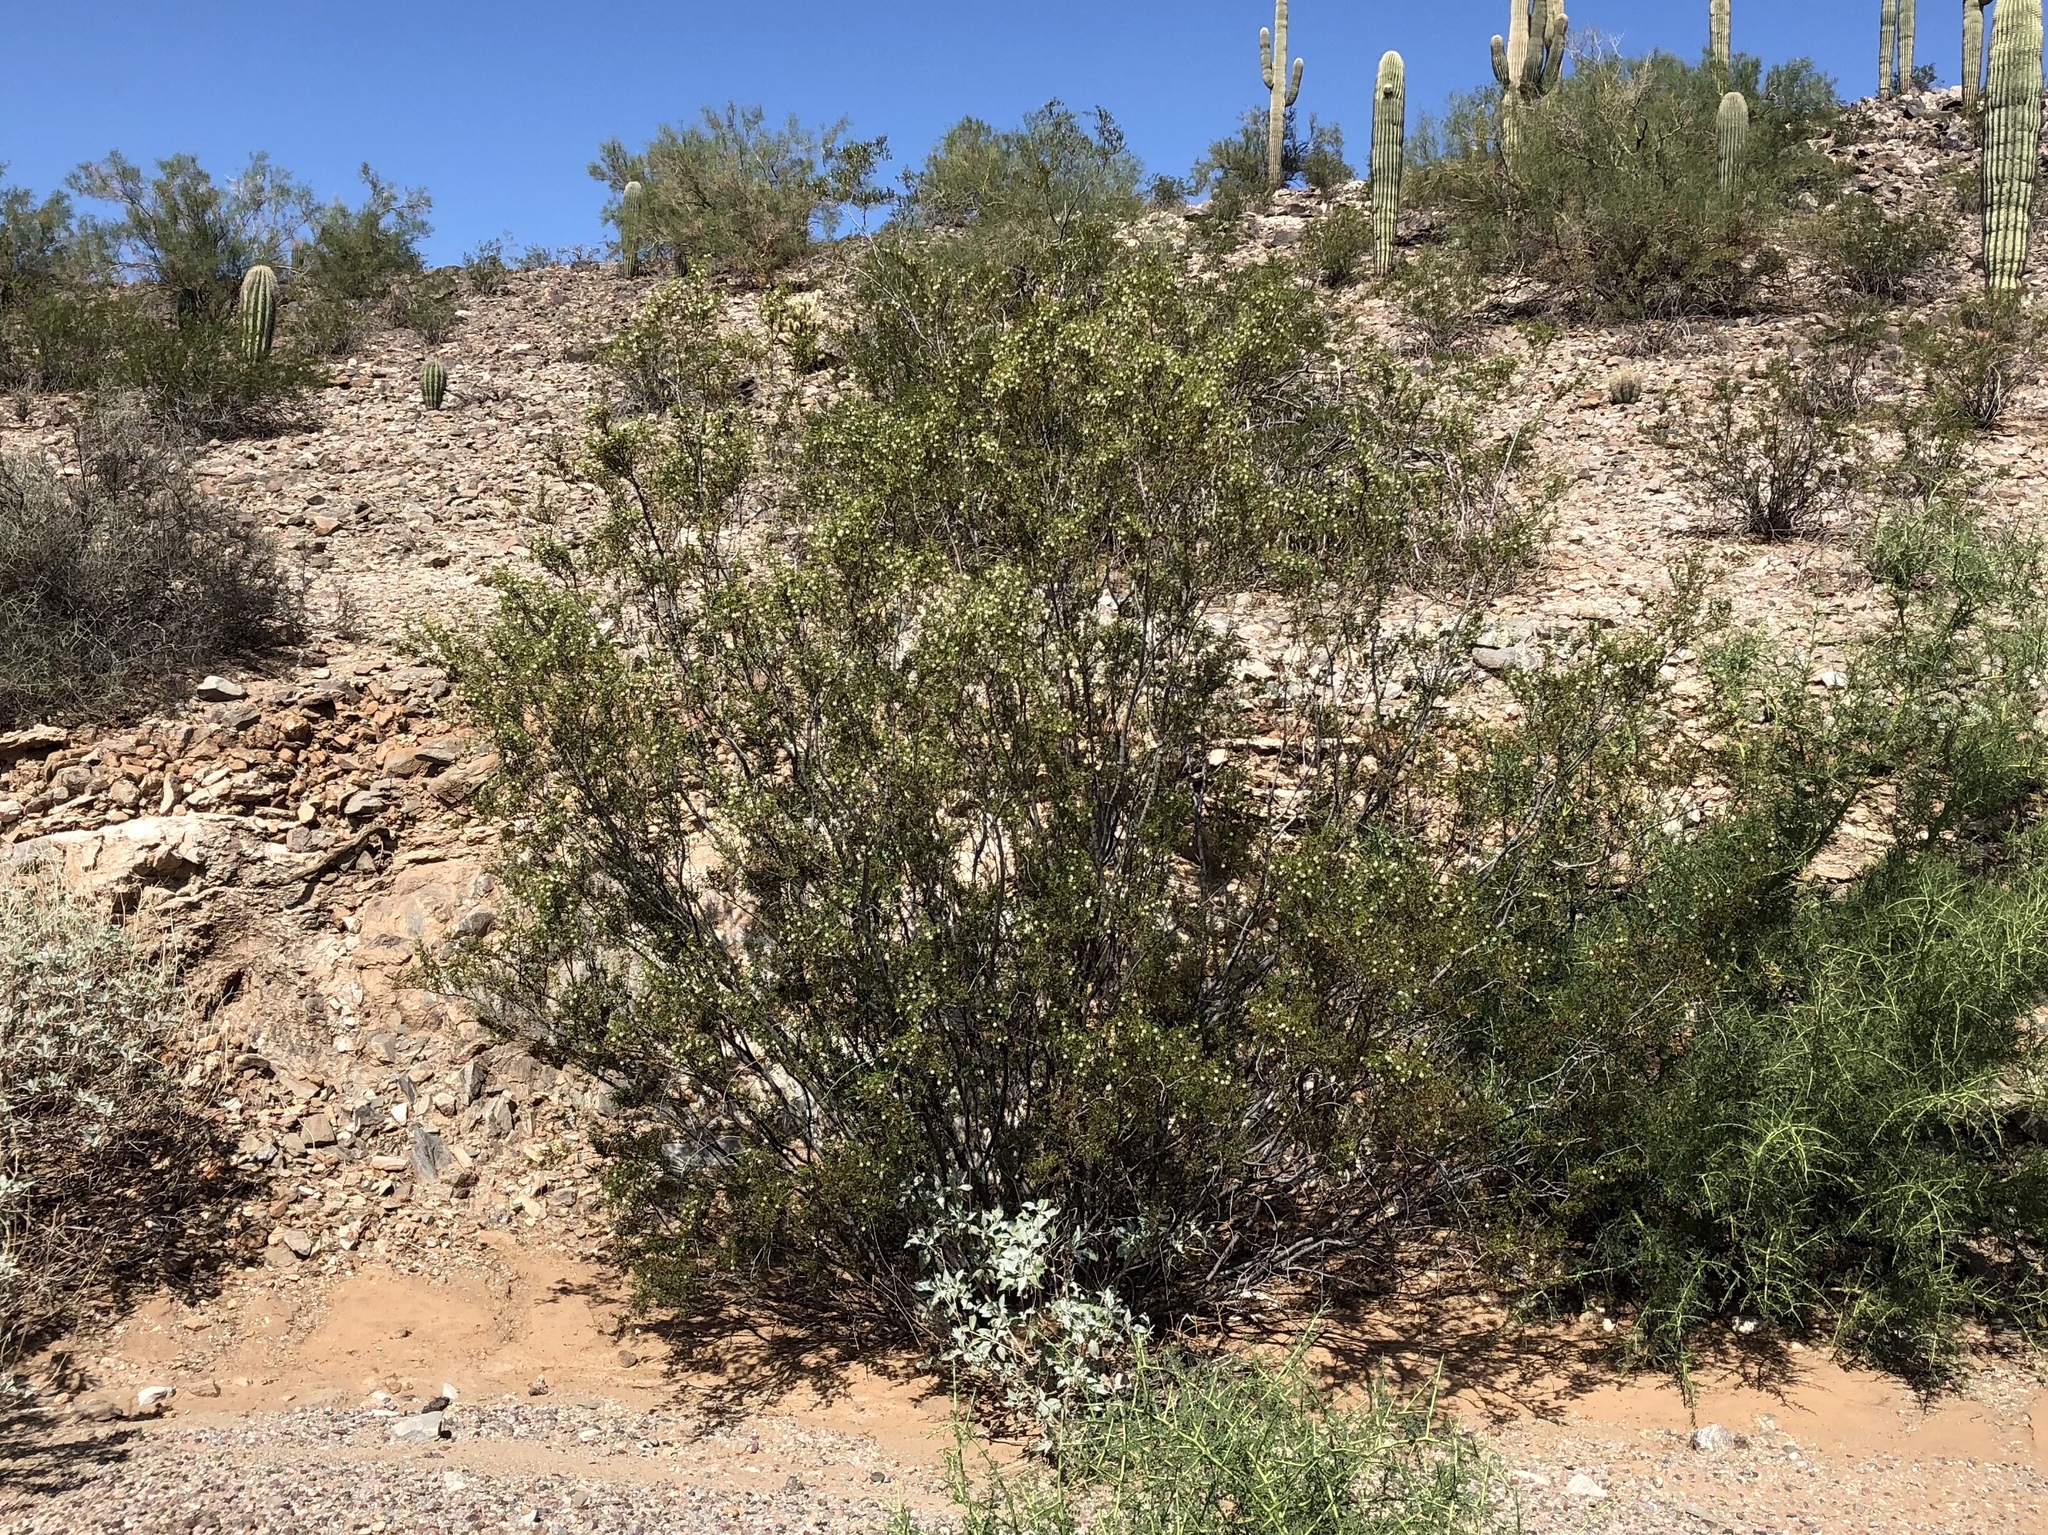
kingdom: Plantae
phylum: Tracheophyta
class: Magnoliopsida
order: Zygophyllales
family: Zygophyllaceae
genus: Larrea
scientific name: Larrea tridentata
